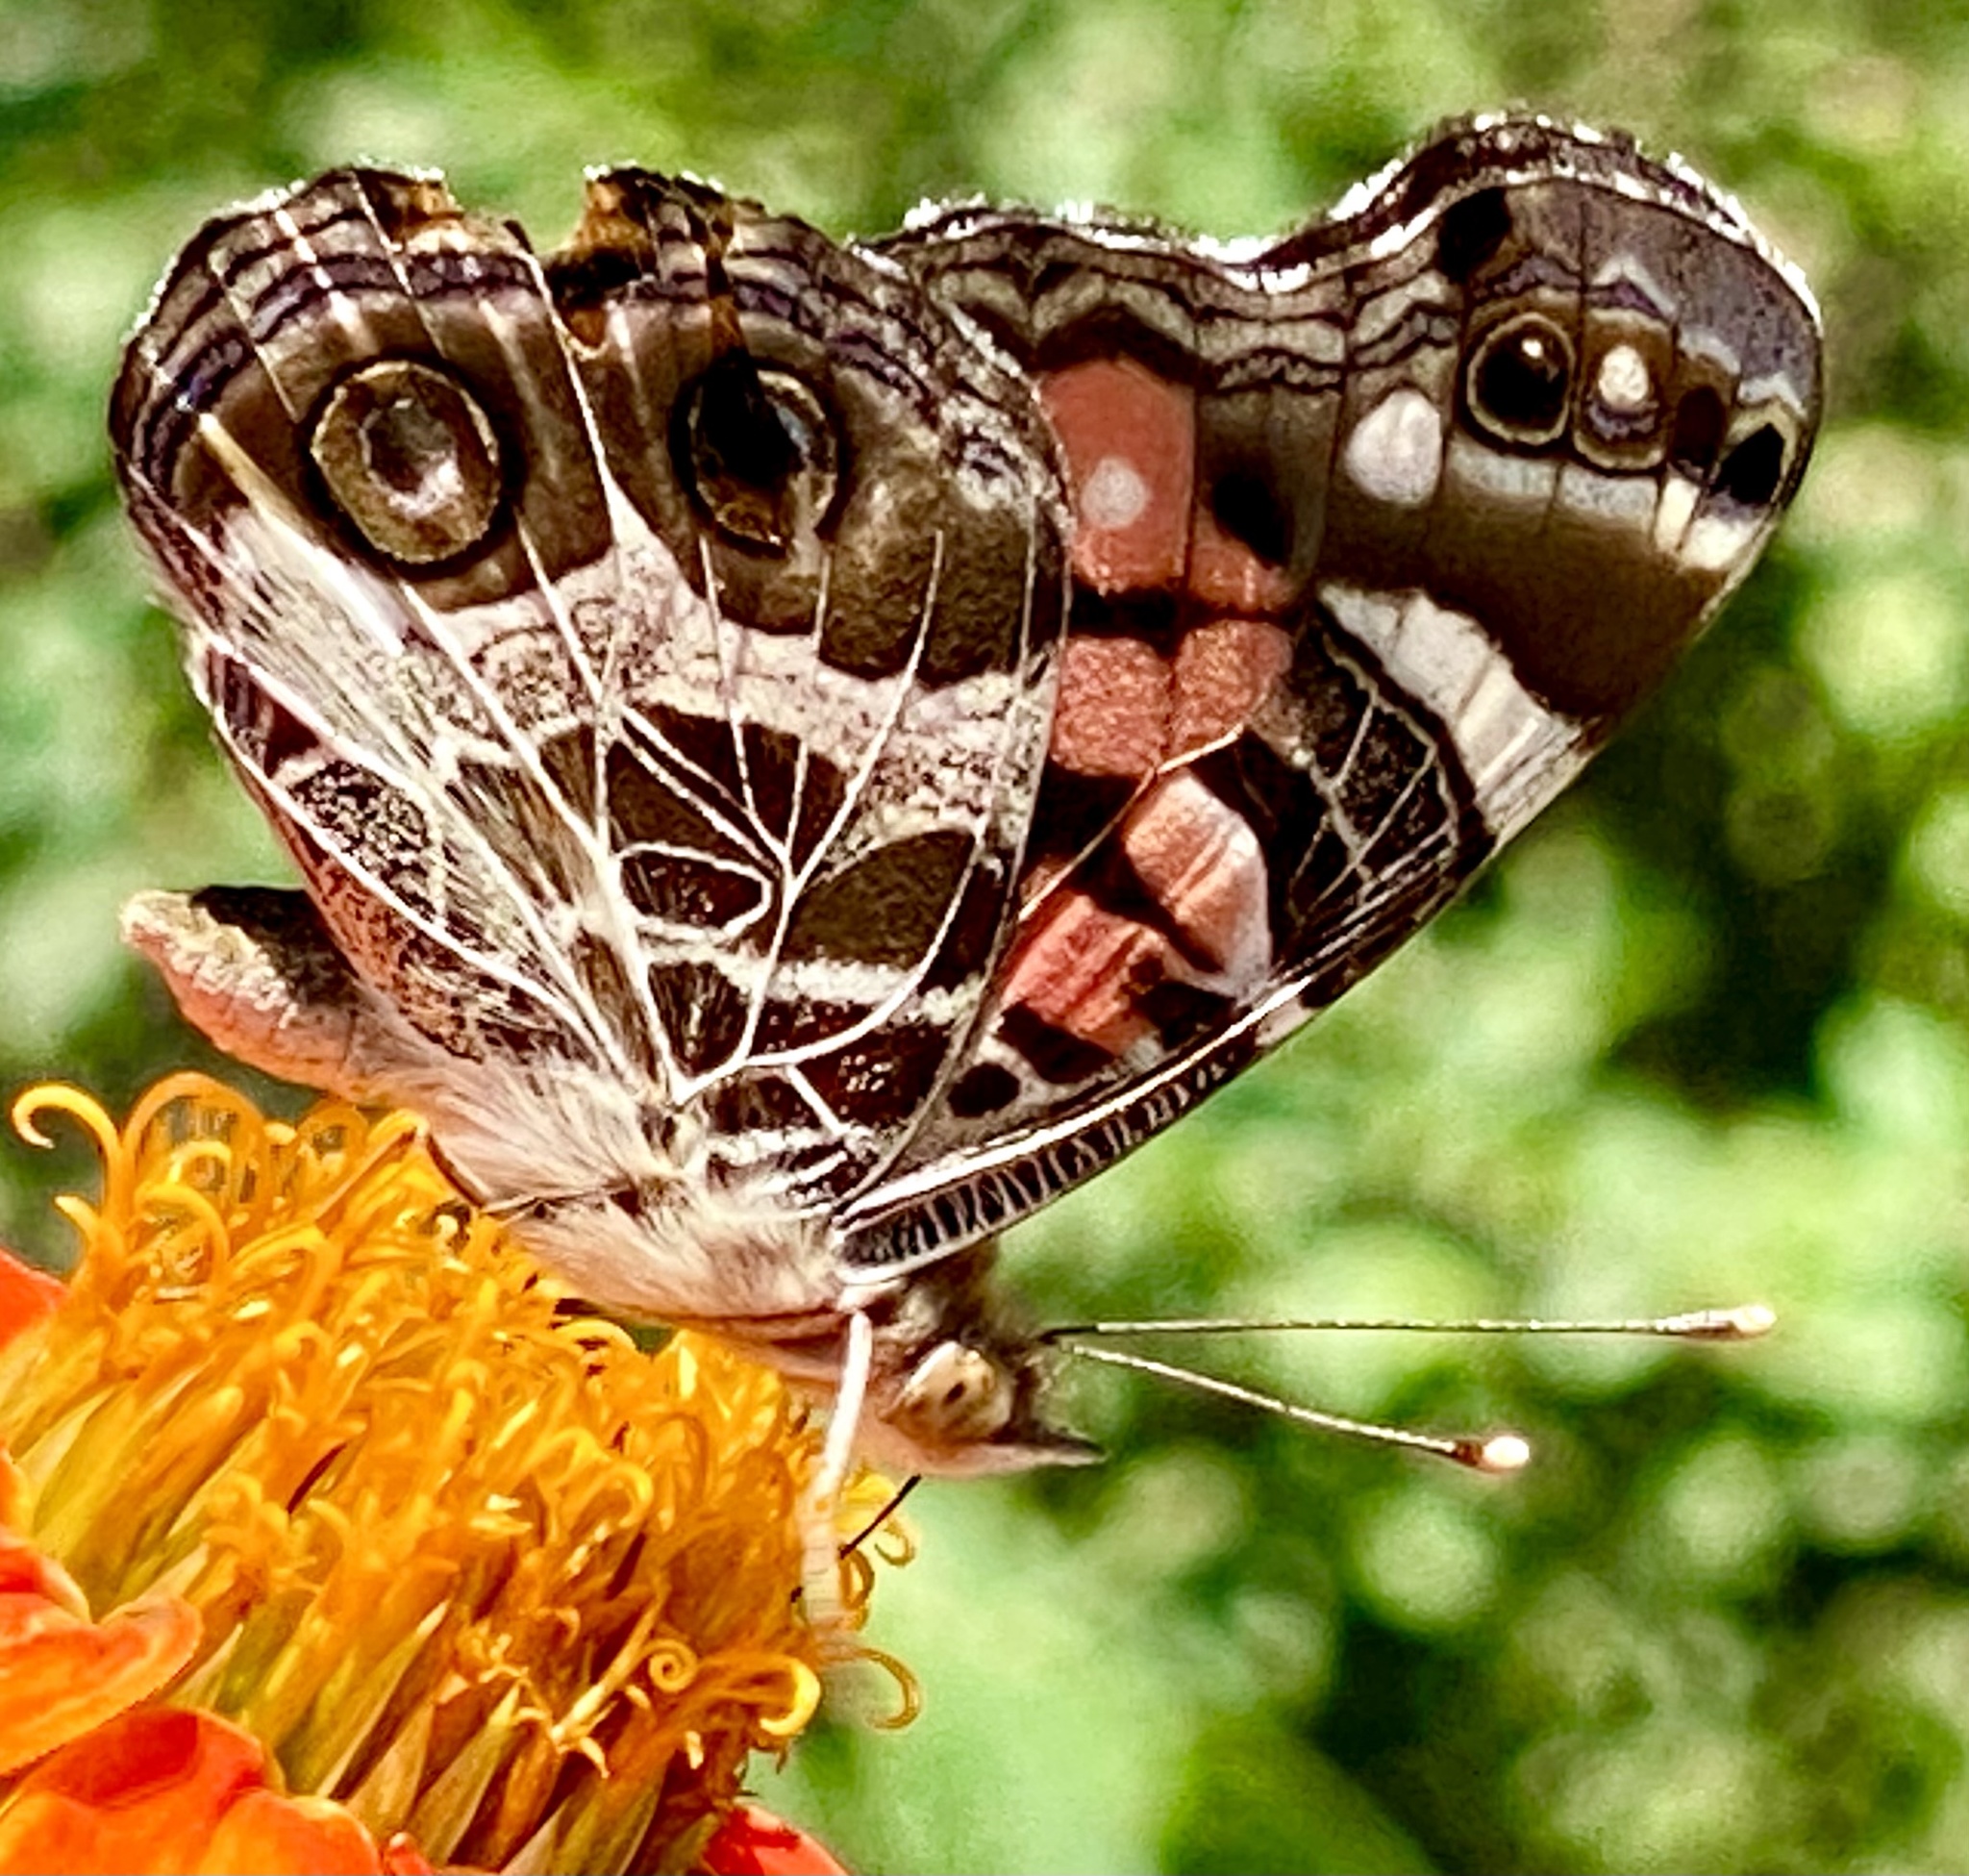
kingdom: Animalia
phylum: Arthropoda
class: Insecta
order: Lepidoptera
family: Nymphalidae
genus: Vanessa
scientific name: Vanessa virginiensis
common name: American lady
